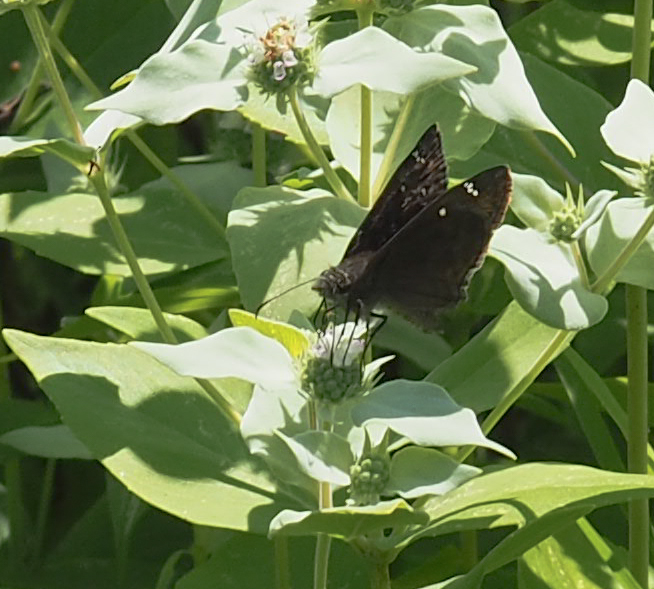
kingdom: Animalia
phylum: Arthropoda
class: Insecta
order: Lepidoptera
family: Hesperiidae
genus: Erynnis
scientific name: Erynnis horatius
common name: Horace's duskywing
